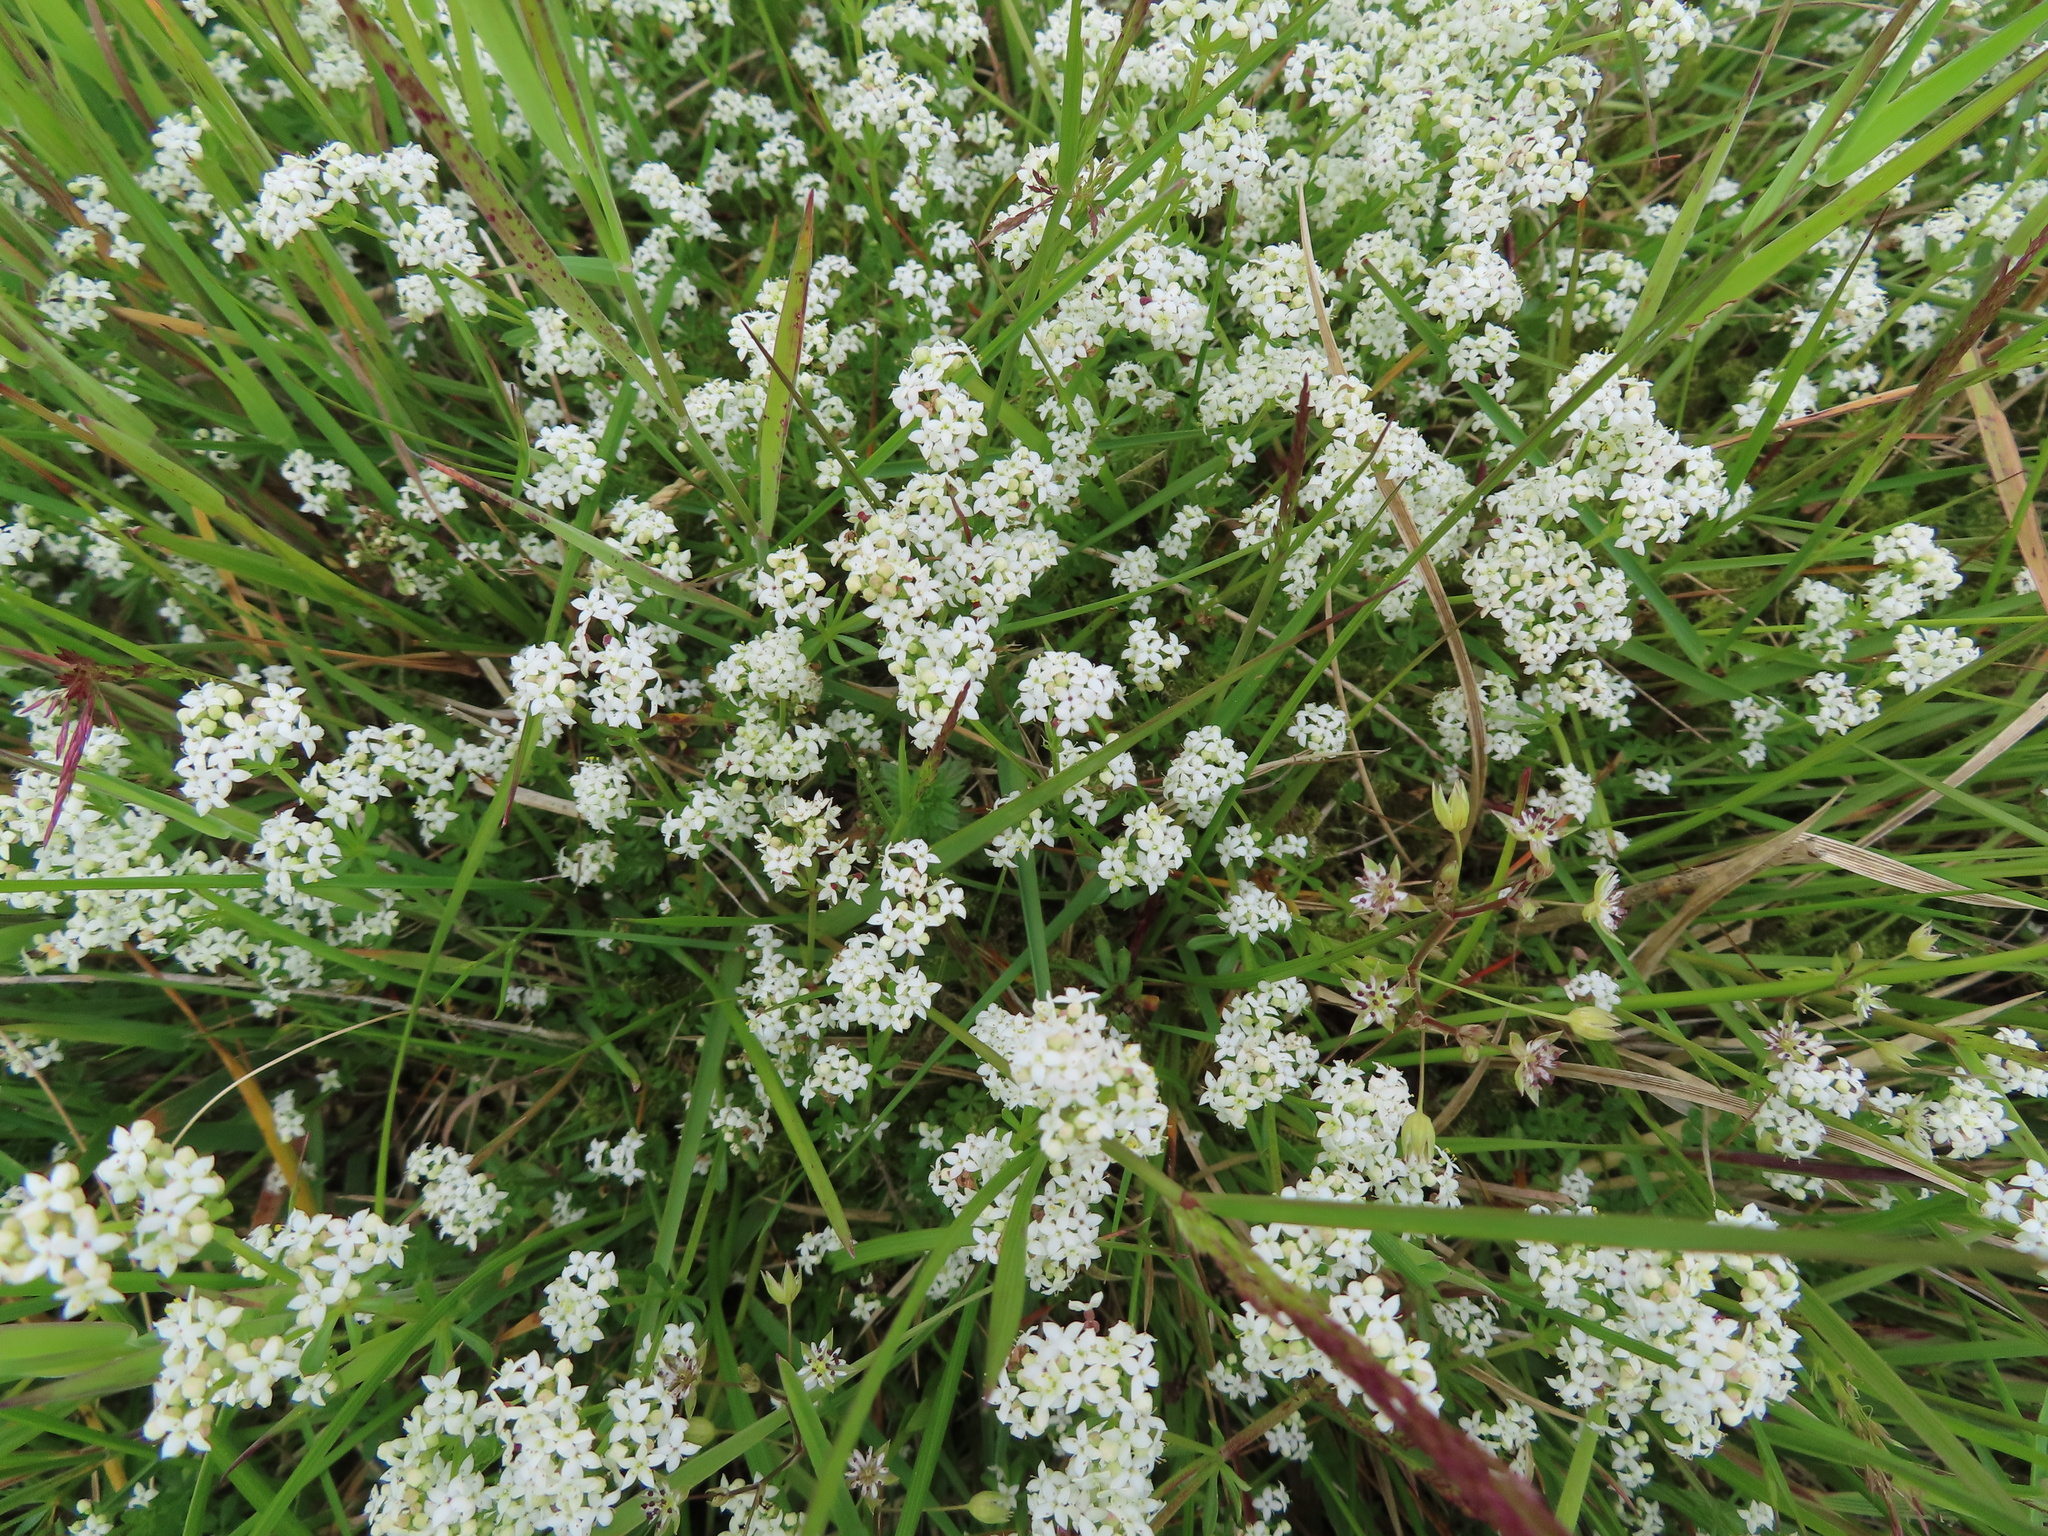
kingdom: Plantae
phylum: Tracheophyta
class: Magnoliopsida
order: Gentianales
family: Rubiaceae
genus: Galium
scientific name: Galium saxatile
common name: Heath bedstraw
